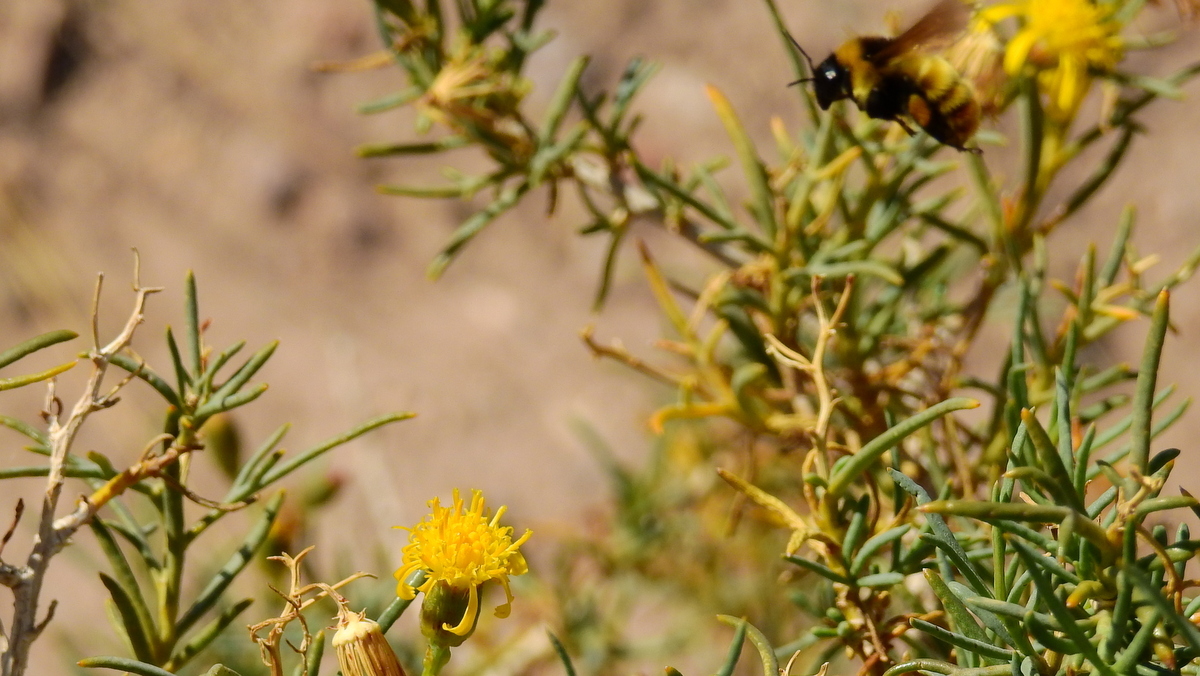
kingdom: Animalia
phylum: Arthropoda
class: Insecta
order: Hymenoptera
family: Apidae
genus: Bombus
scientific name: Bombus opifex
